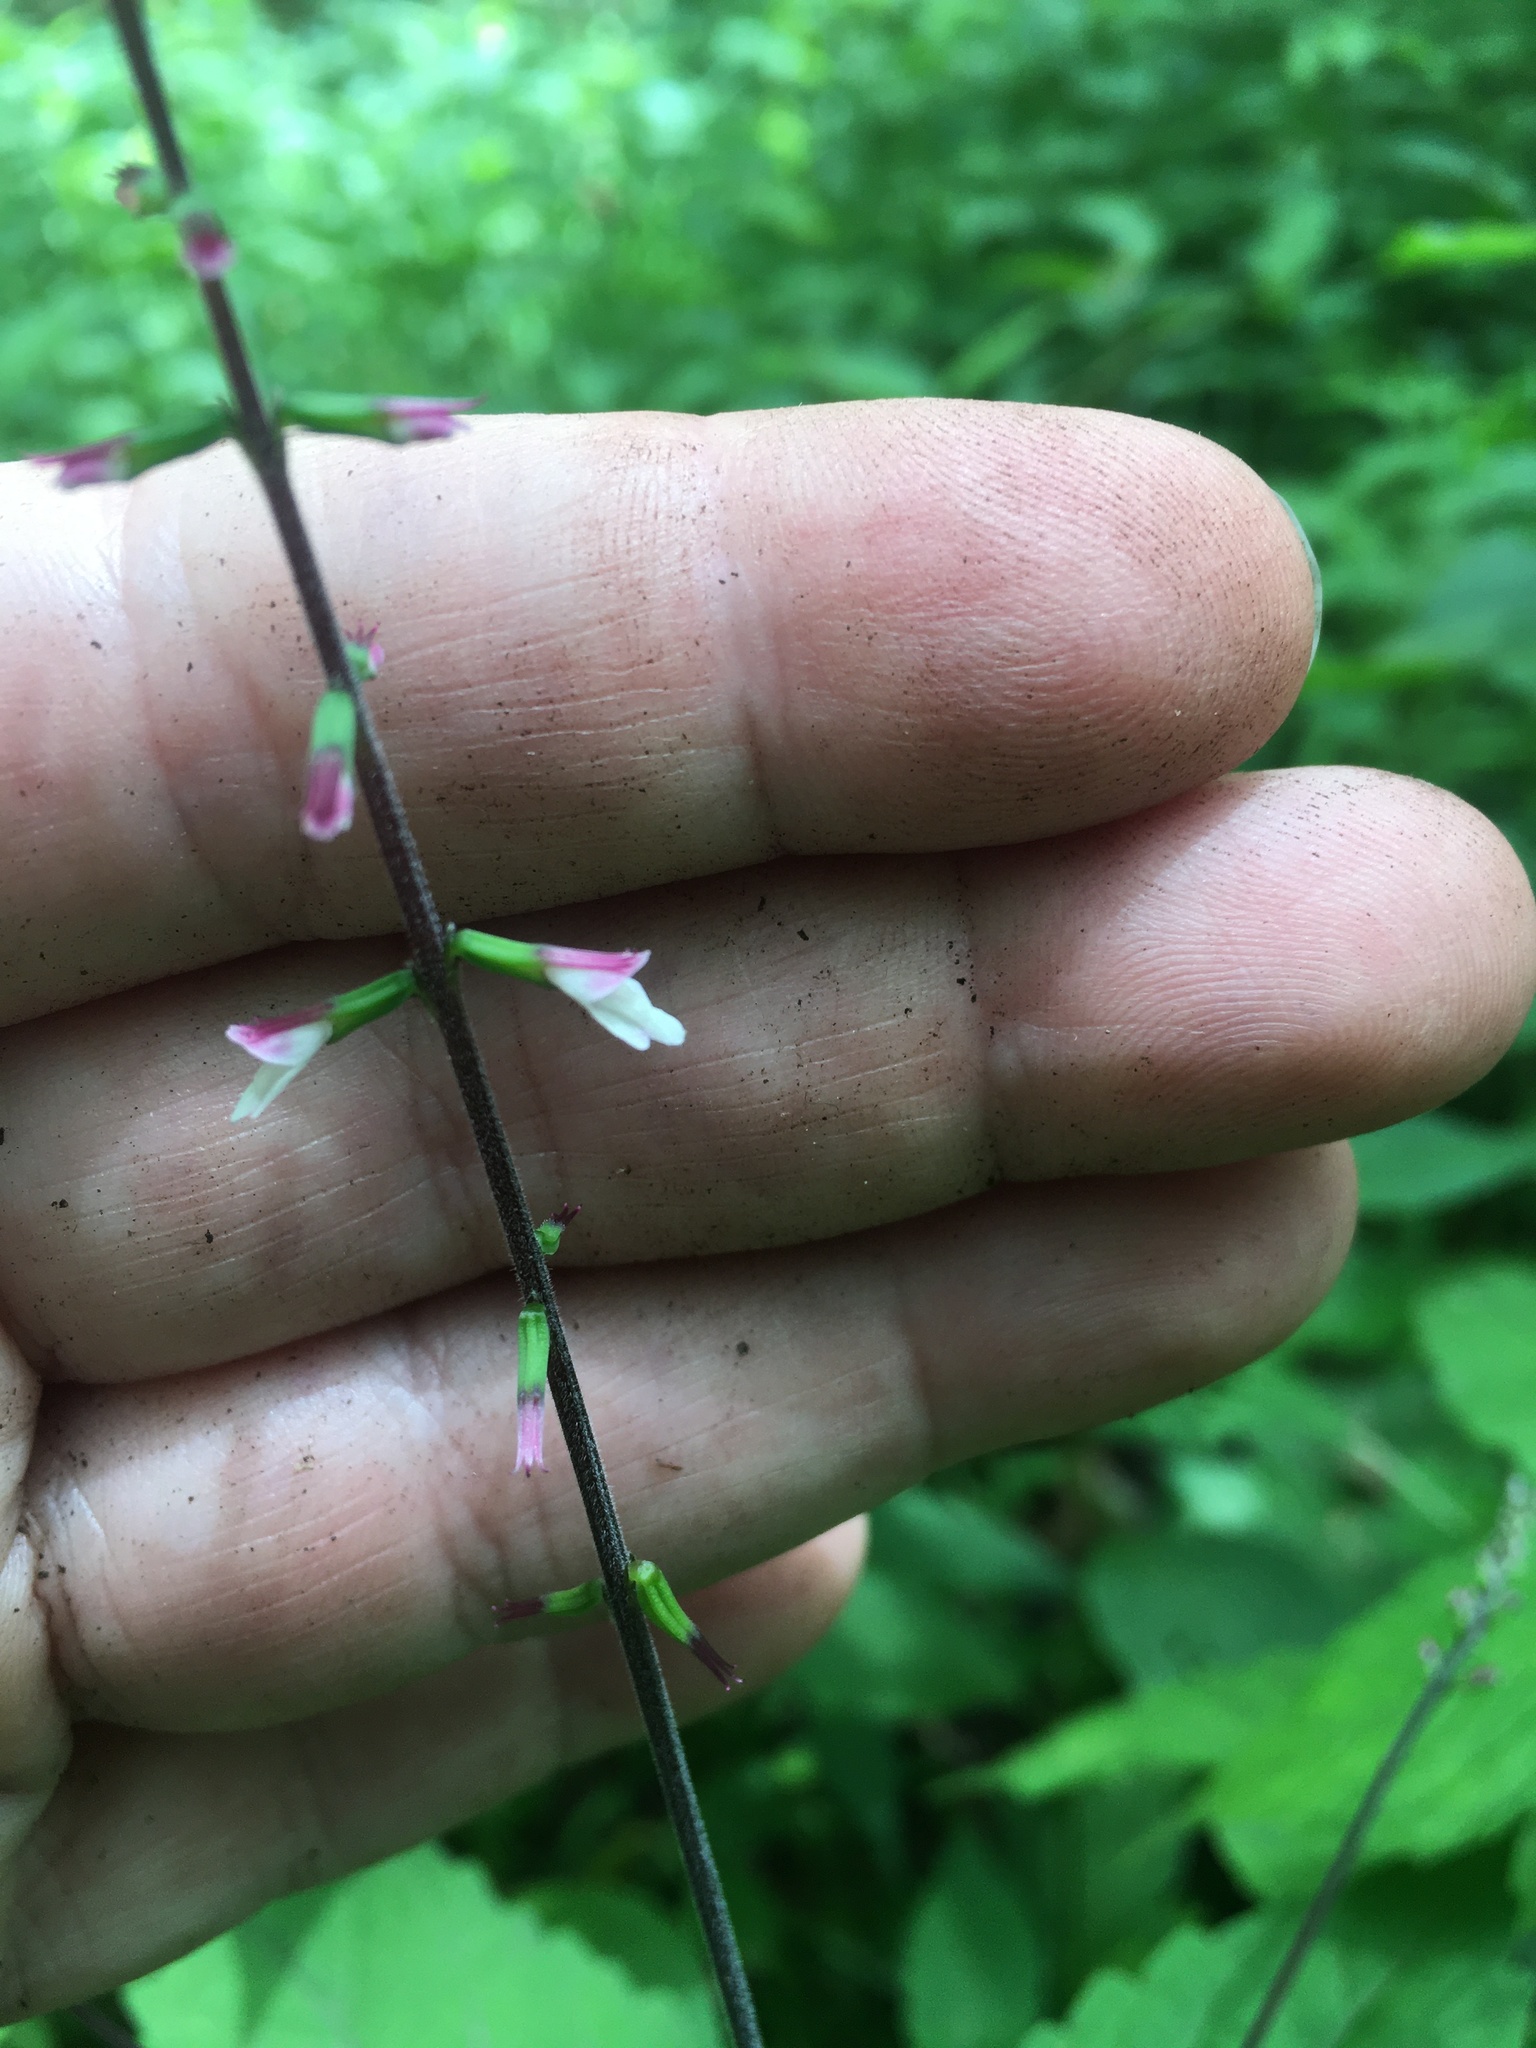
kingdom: Plantae
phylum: Tracheophyta
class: Magnoliopsida
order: Lamiales
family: Phrymaceae
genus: Phryma
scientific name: Phryma leptostachya
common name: American lopseed
